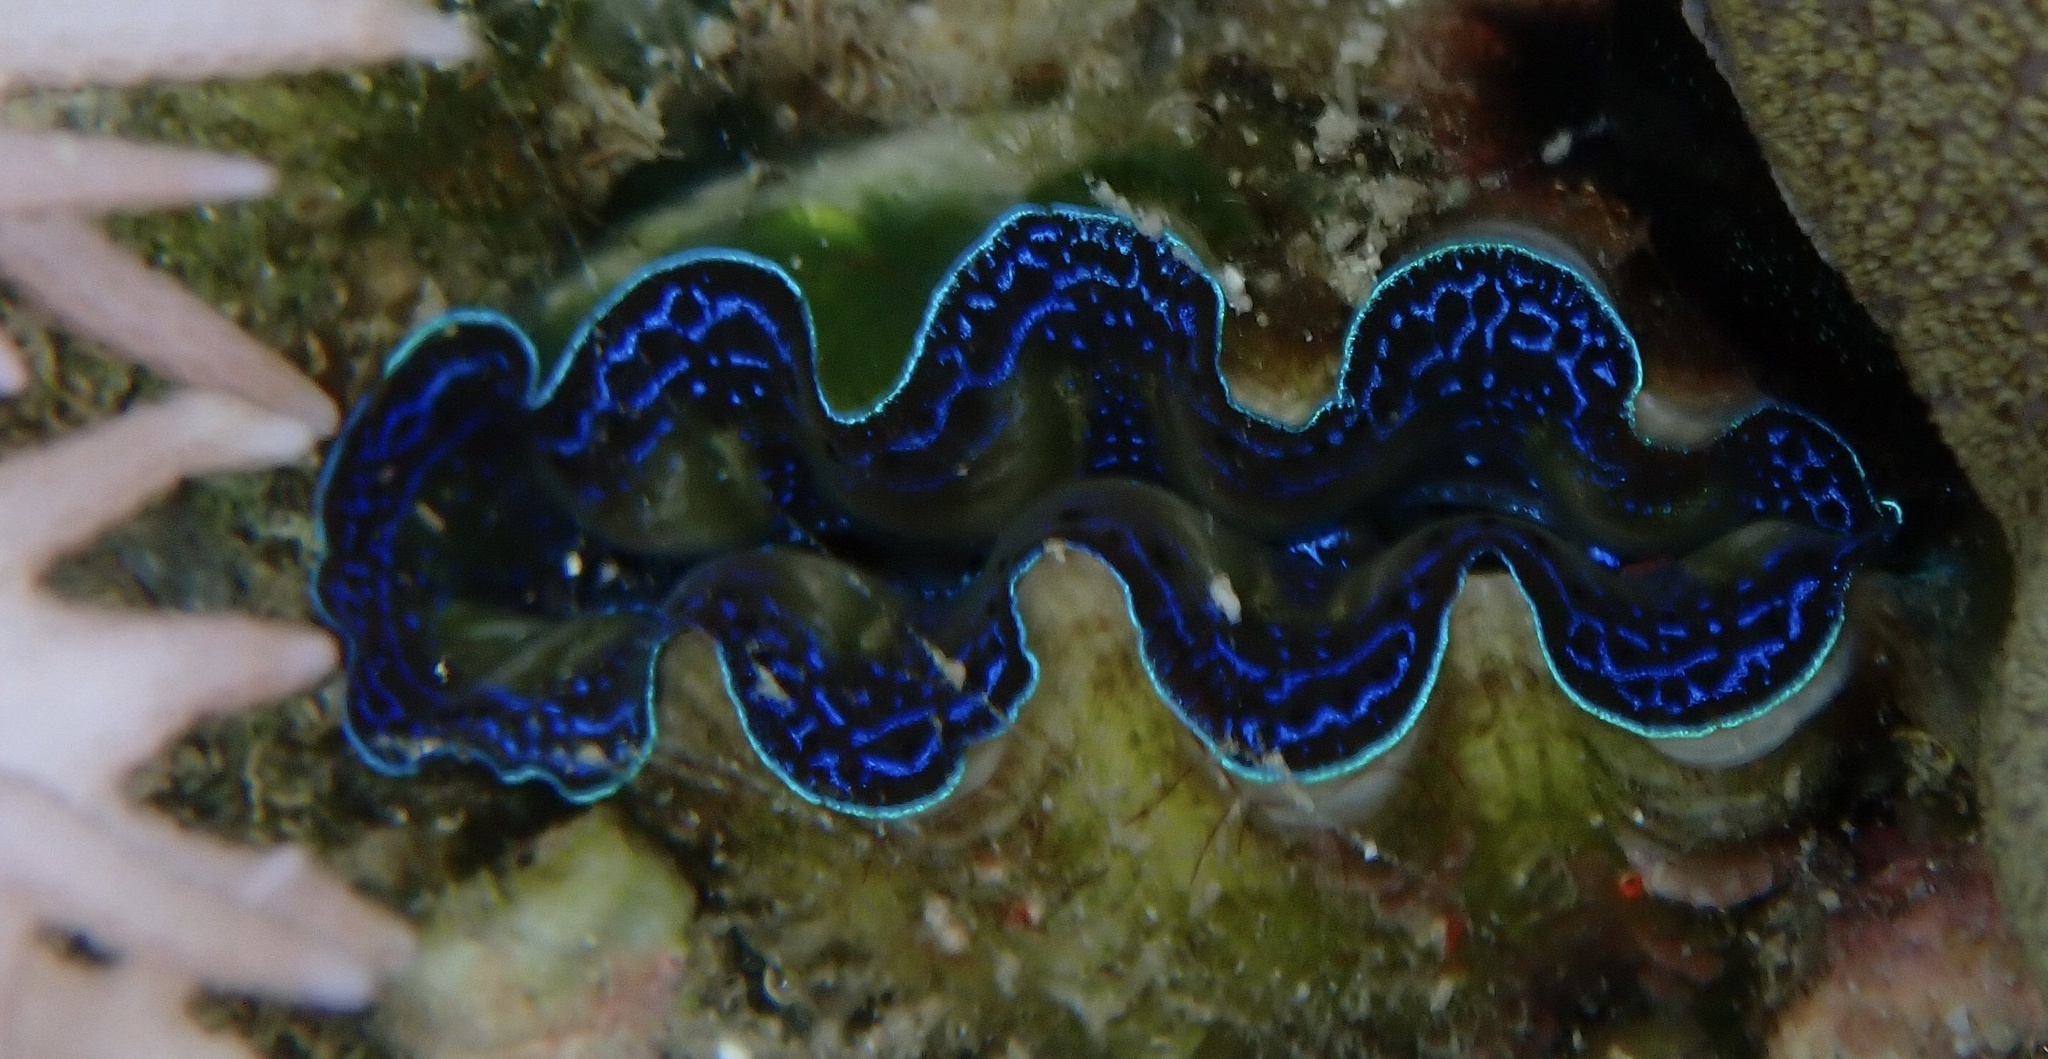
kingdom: Animalia
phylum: Mollusca
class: Bivalvia
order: Cardiida
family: Cardiidae
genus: Tridacna
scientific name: Tridacna crocea
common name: Boring clam
